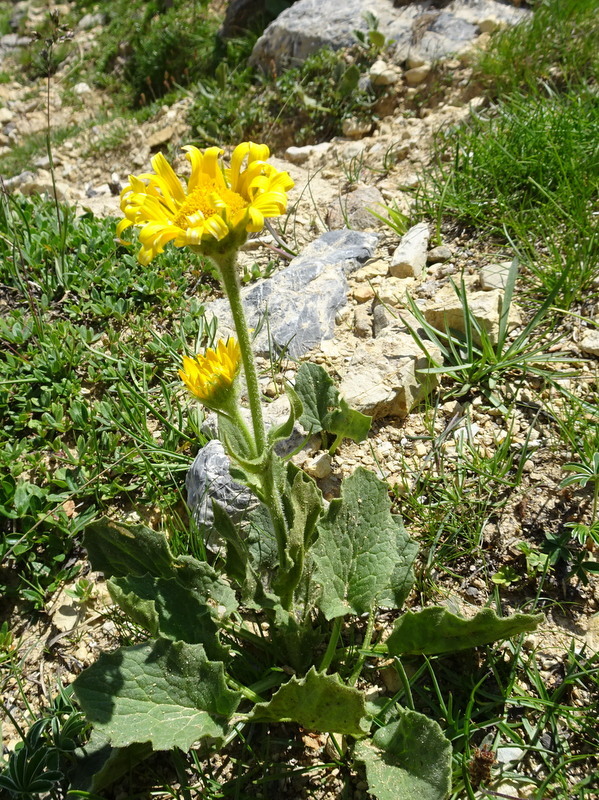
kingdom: Plantae
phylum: Tracheophyta
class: Magnoliopsida
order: Asterales
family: Asteraceae
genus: Doronicum
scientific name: Doronicum grandiflorum
